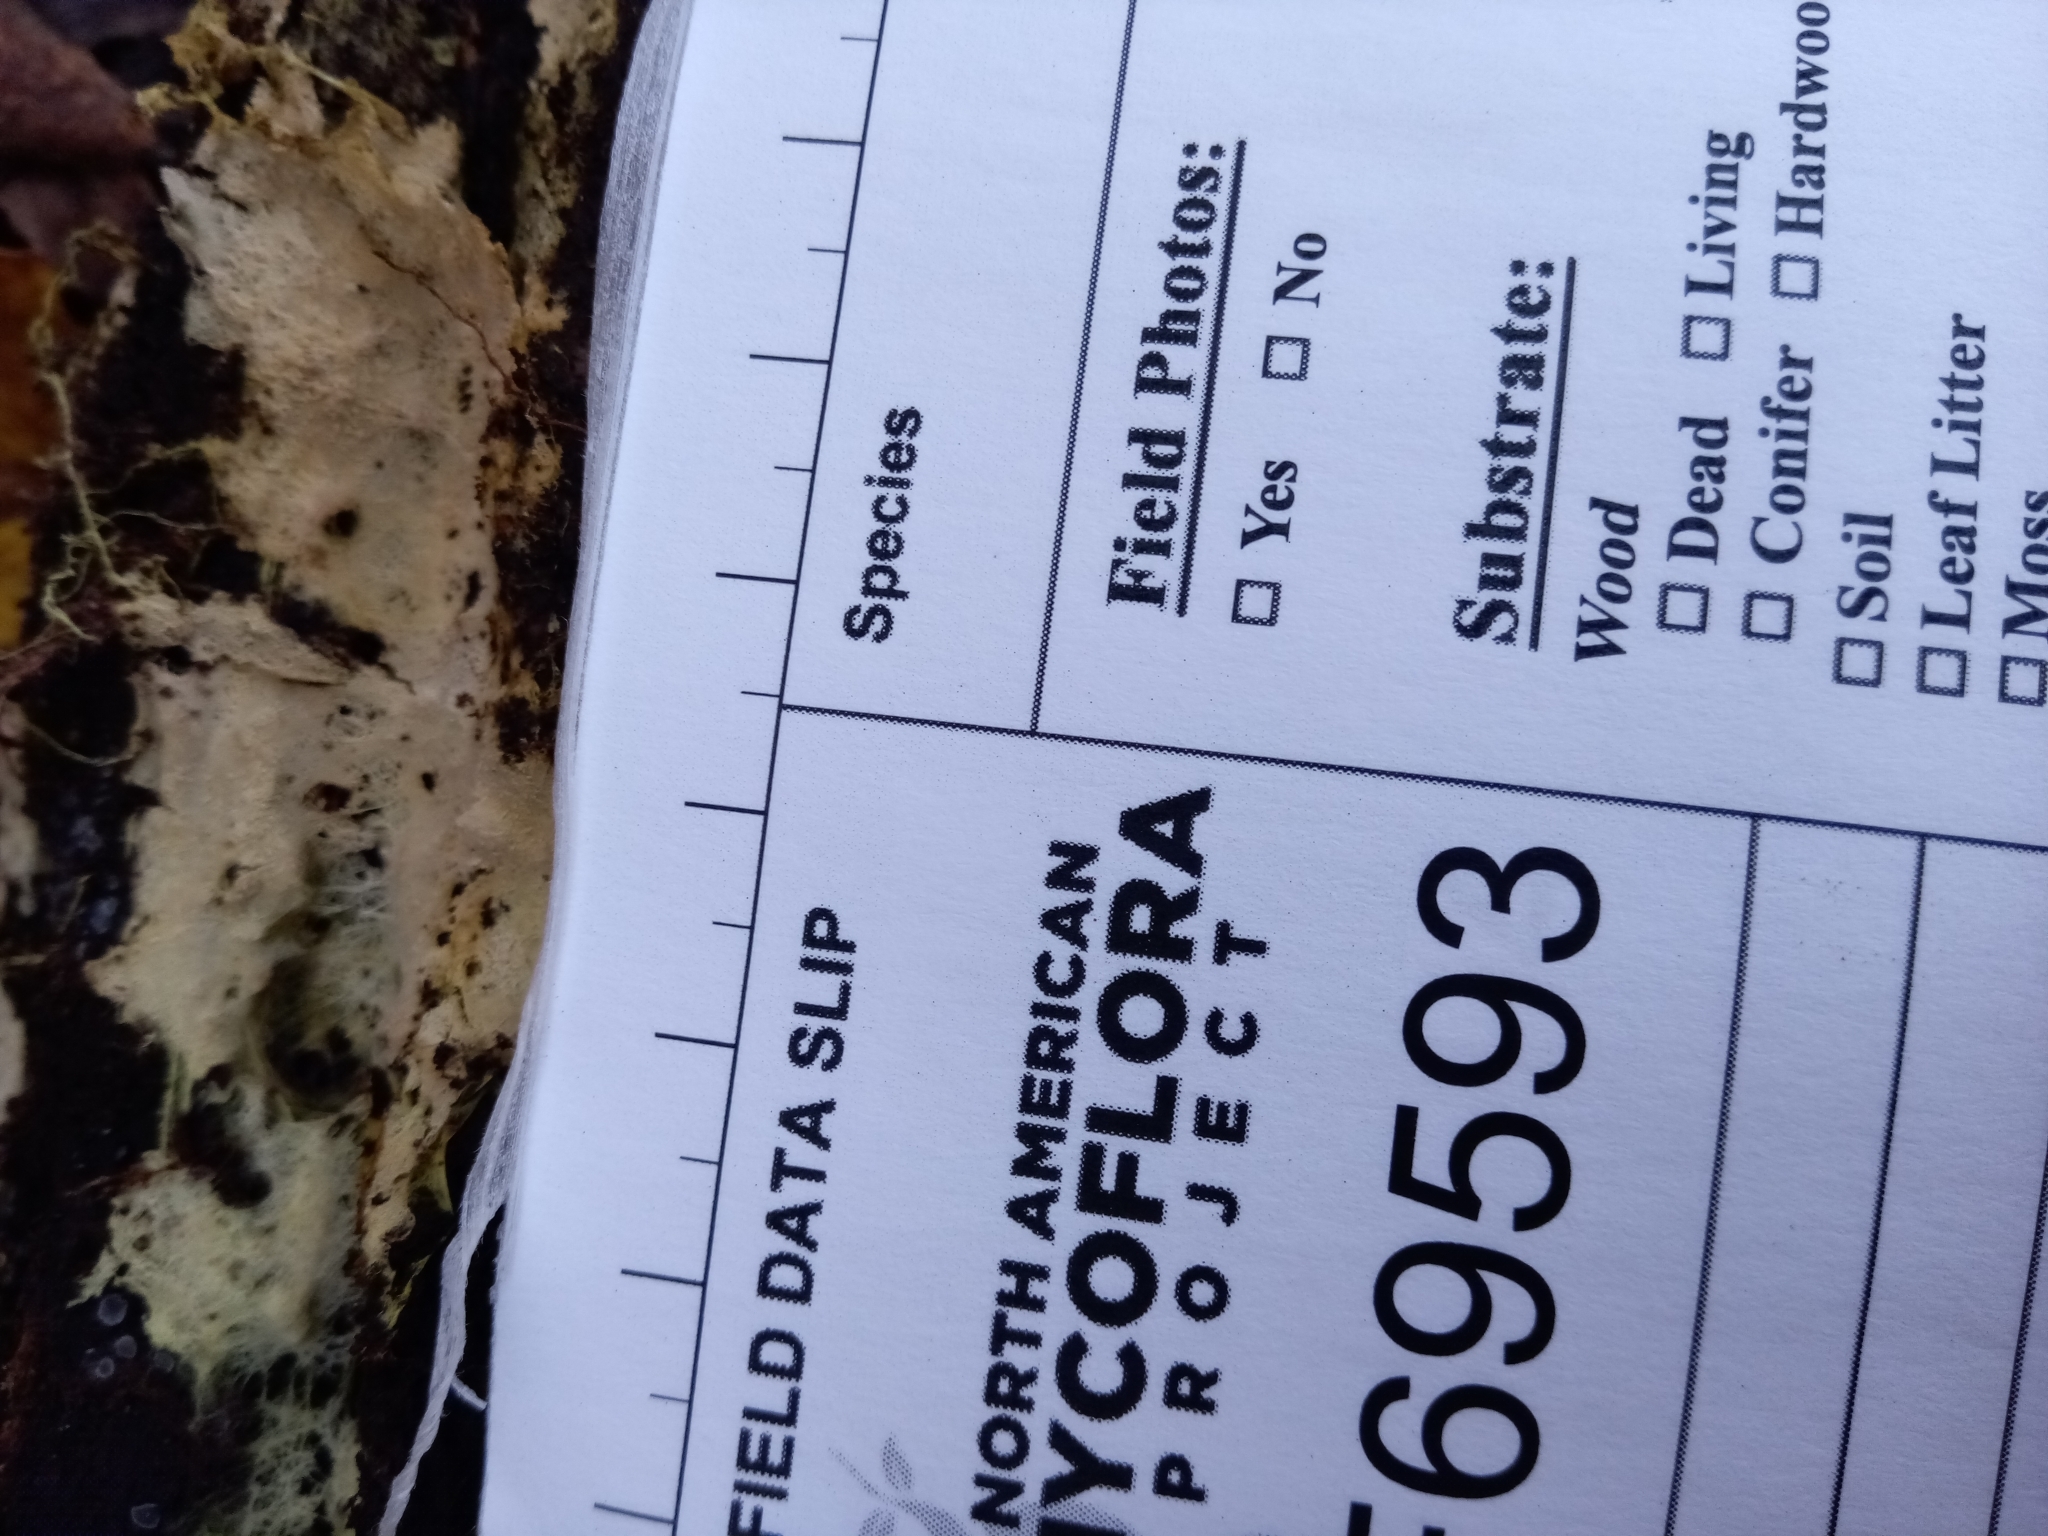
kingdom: Fungi
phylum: Basidiomycota
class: Agaricomycetes
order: Russulales
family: Xenasmataceae
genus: Xenasmatella
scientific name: Xenasmatella vaga
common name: Yellow cobweb
